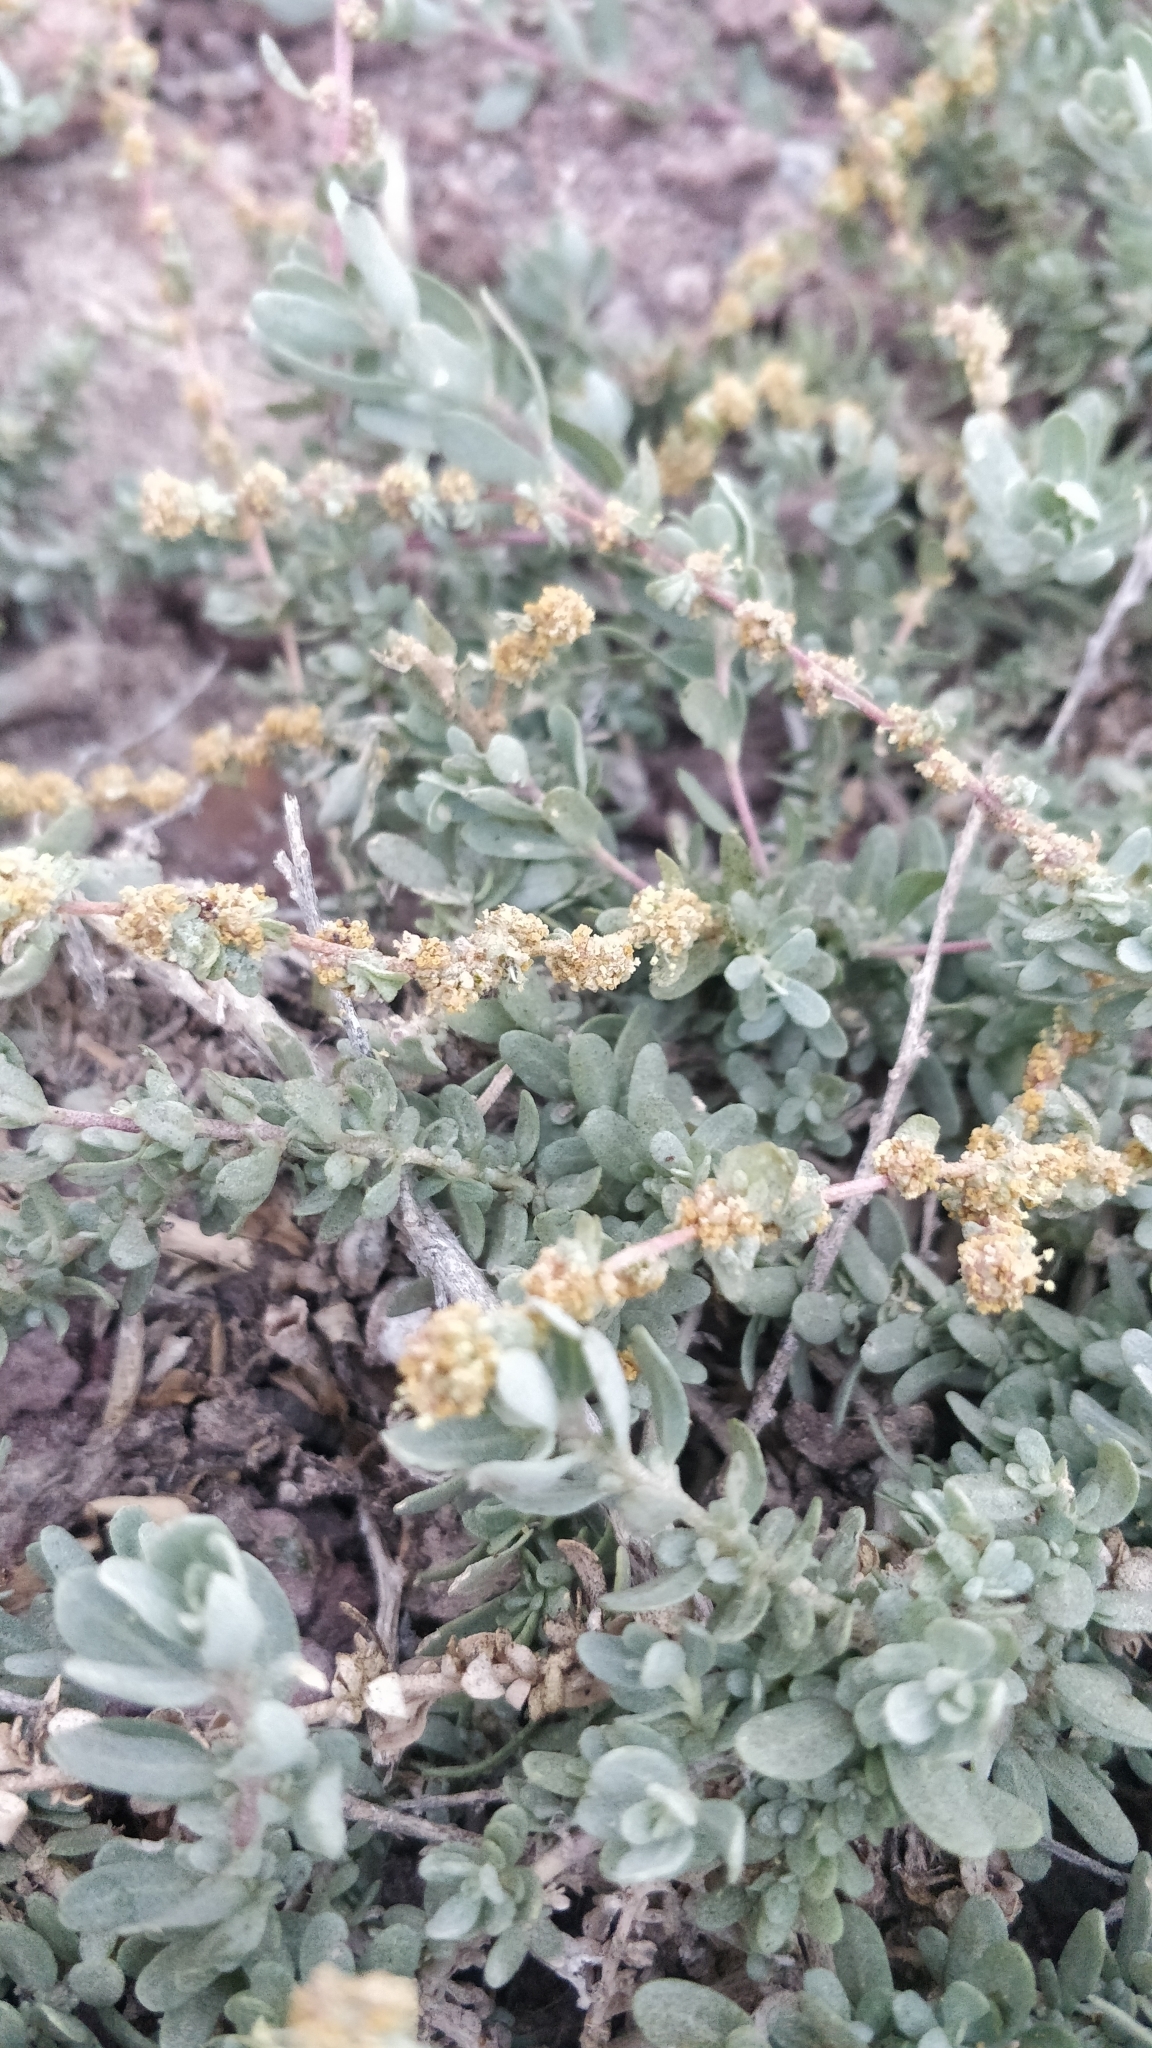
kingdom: Plantae
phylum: Tracheophyta
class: Magnoliopsida
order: Caryophyllales
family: Amaranthaceae
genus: Atriplex
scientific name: Atriplex glauca
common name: Waxy saltbush
